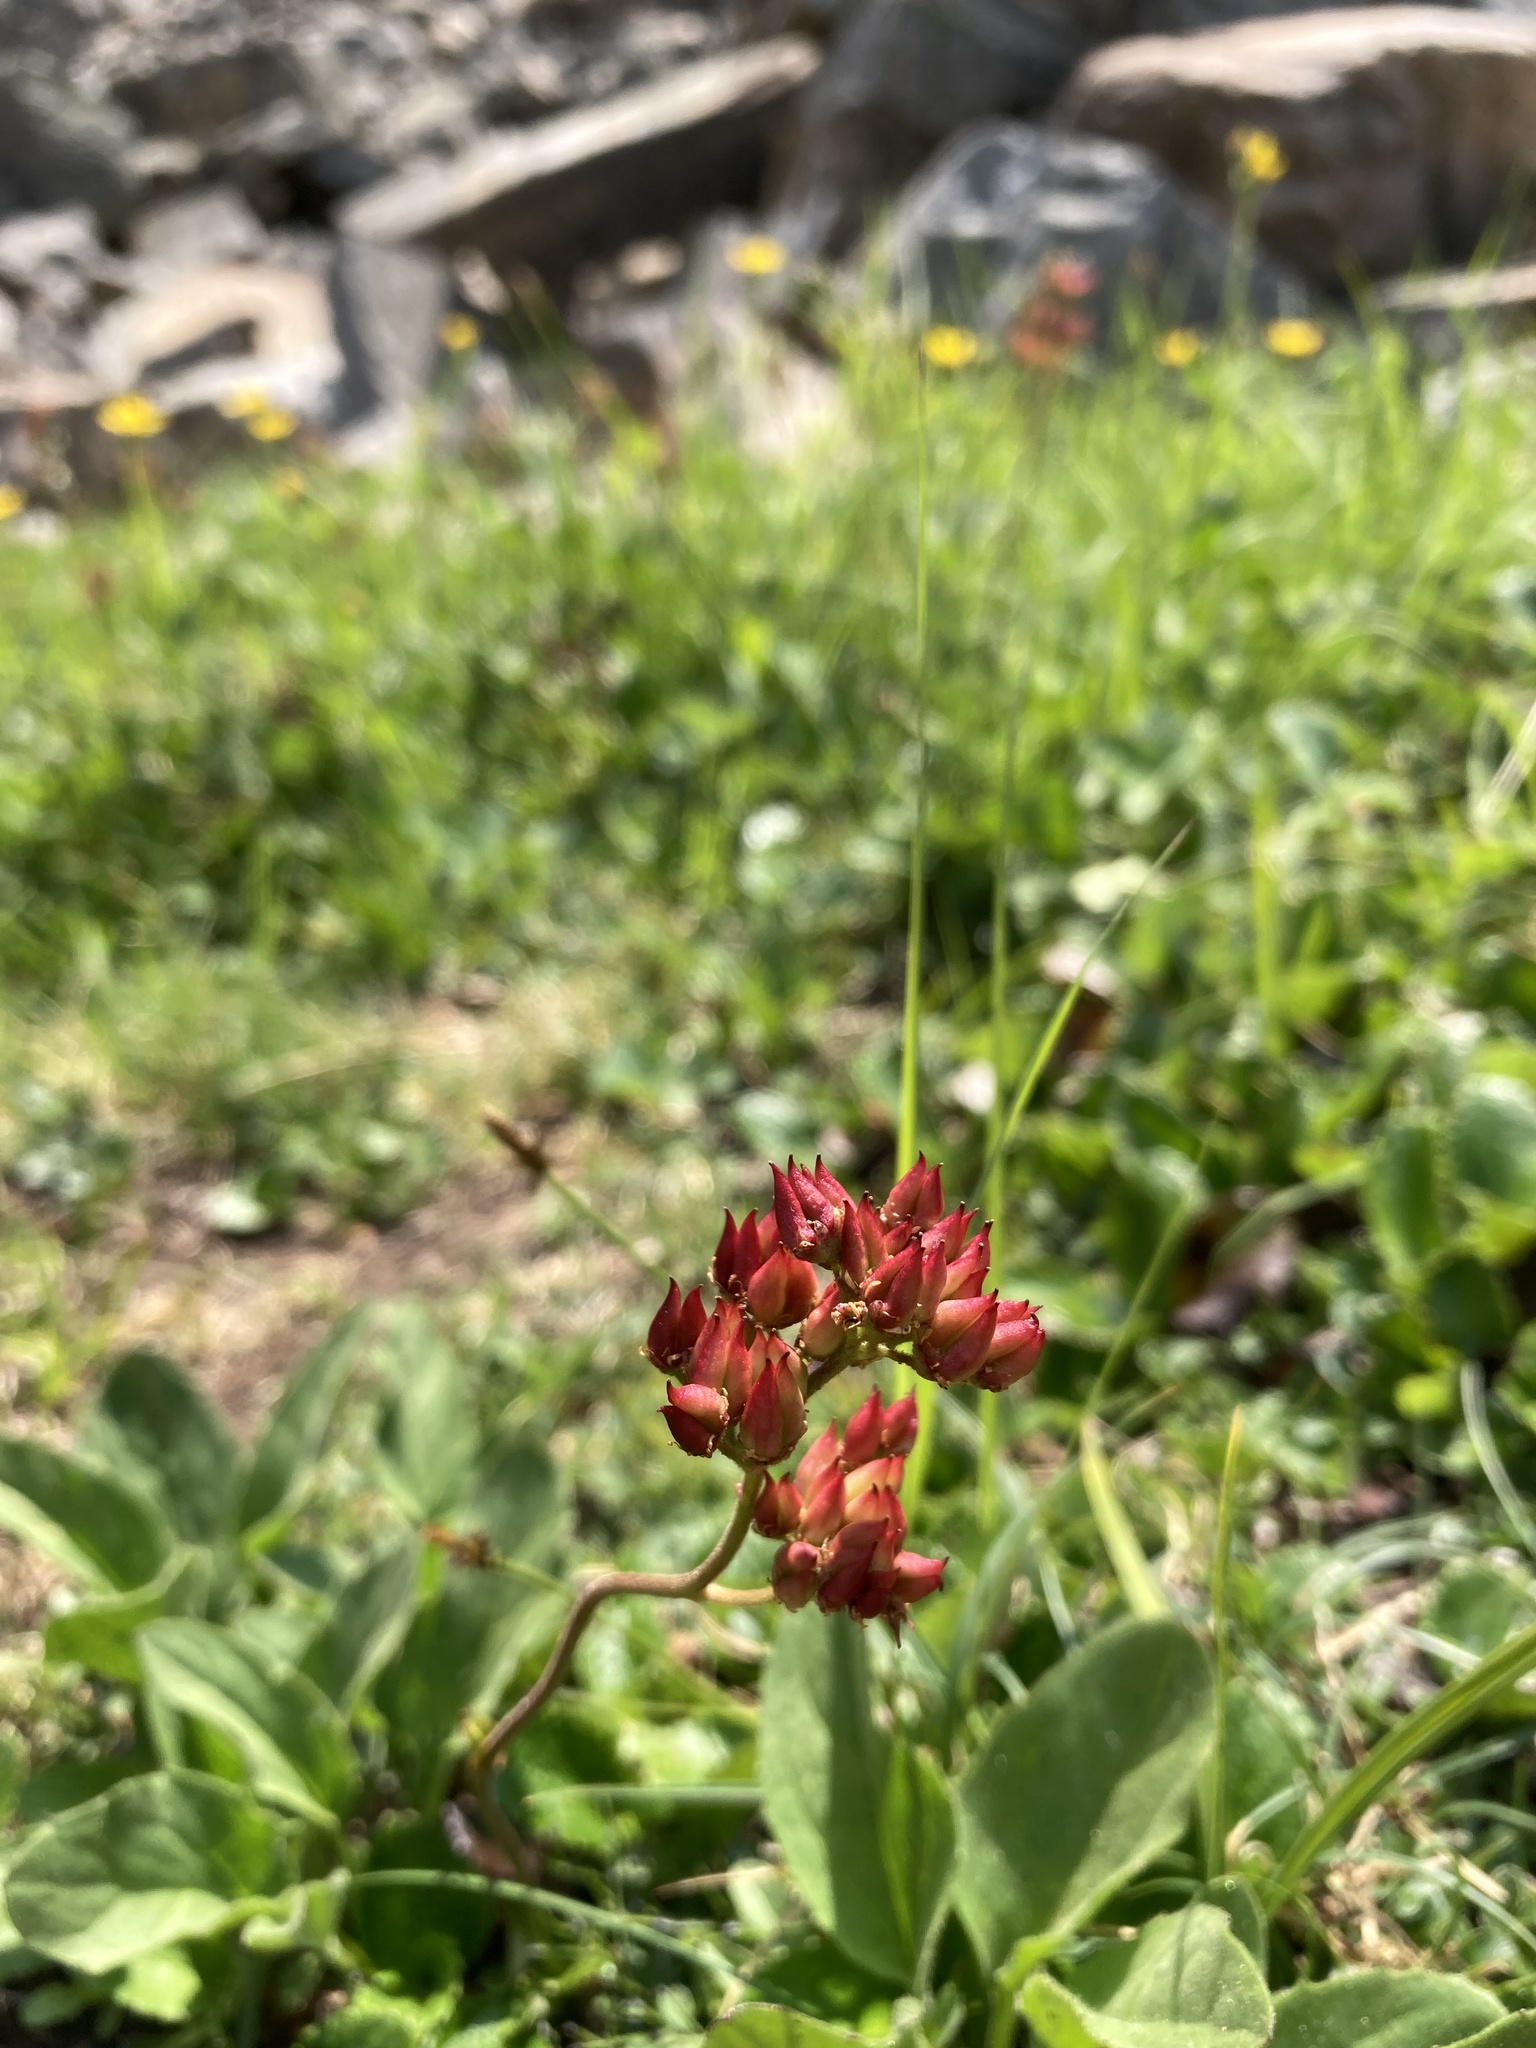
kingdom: Plantae
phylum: Tracheophyta
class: Magnoliopsida
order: Saxifragales
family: Saxifragaceae
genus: Leptarrhena
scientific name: Leptarrhena pyrolifolia
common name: Leatherleaf-saxifrage
